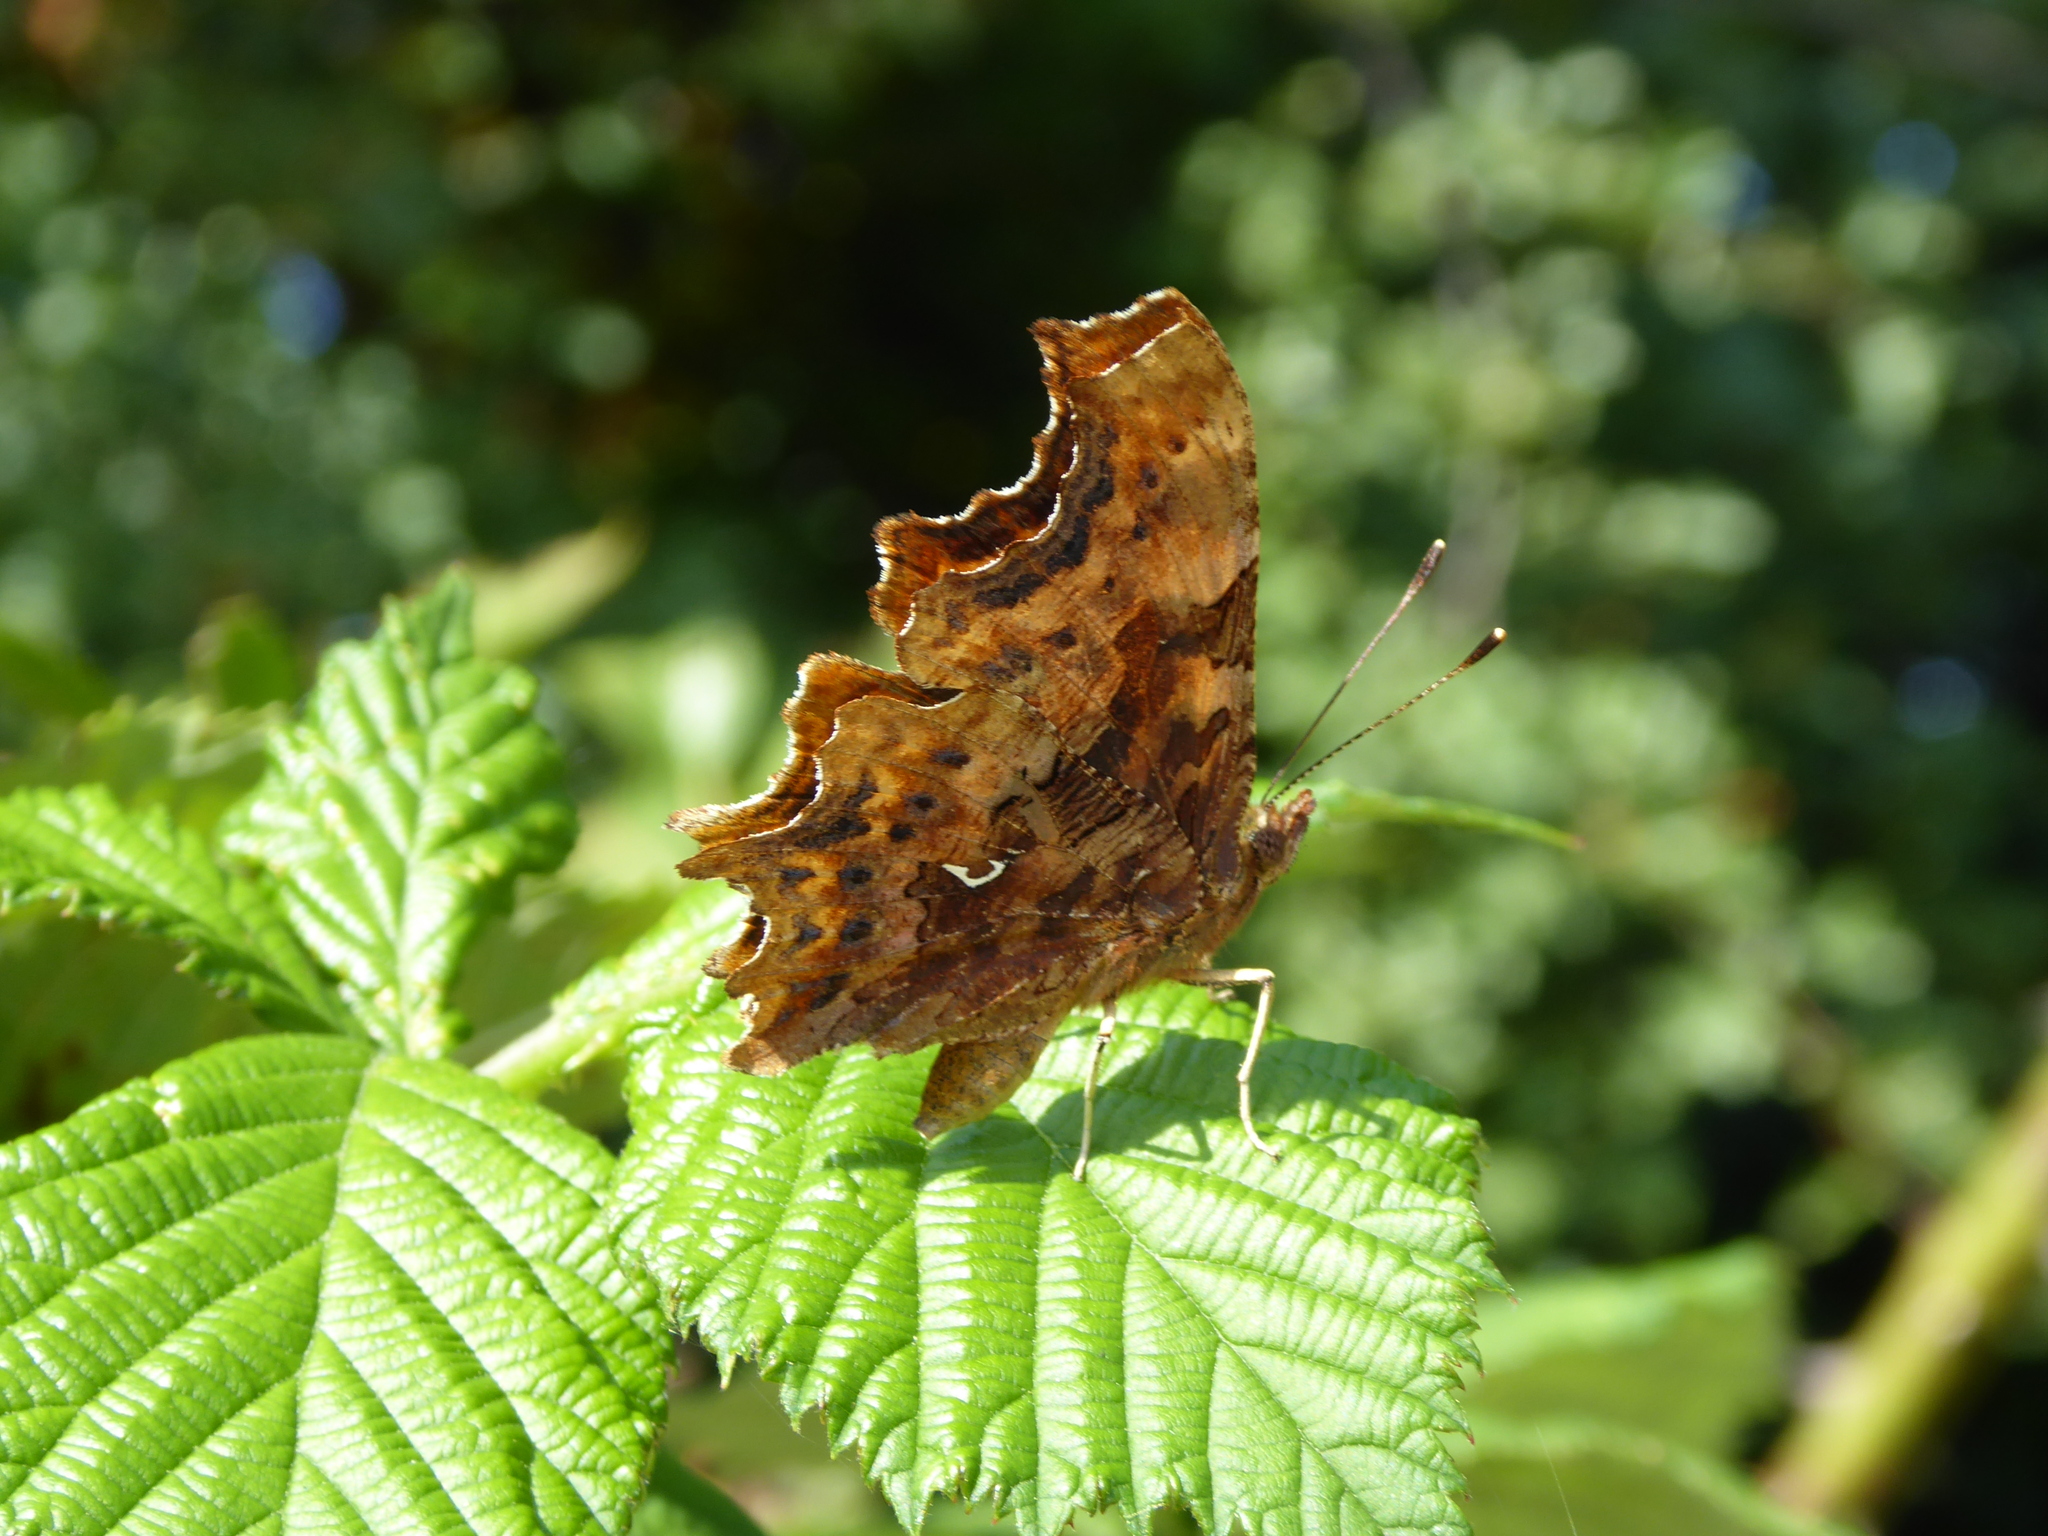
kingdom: Animalia
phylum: Arthropoda
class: Insecta
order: Lepidoptera
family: Nymphalidae
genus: Polygonia
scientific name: Polygonia c-album
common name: Comma
